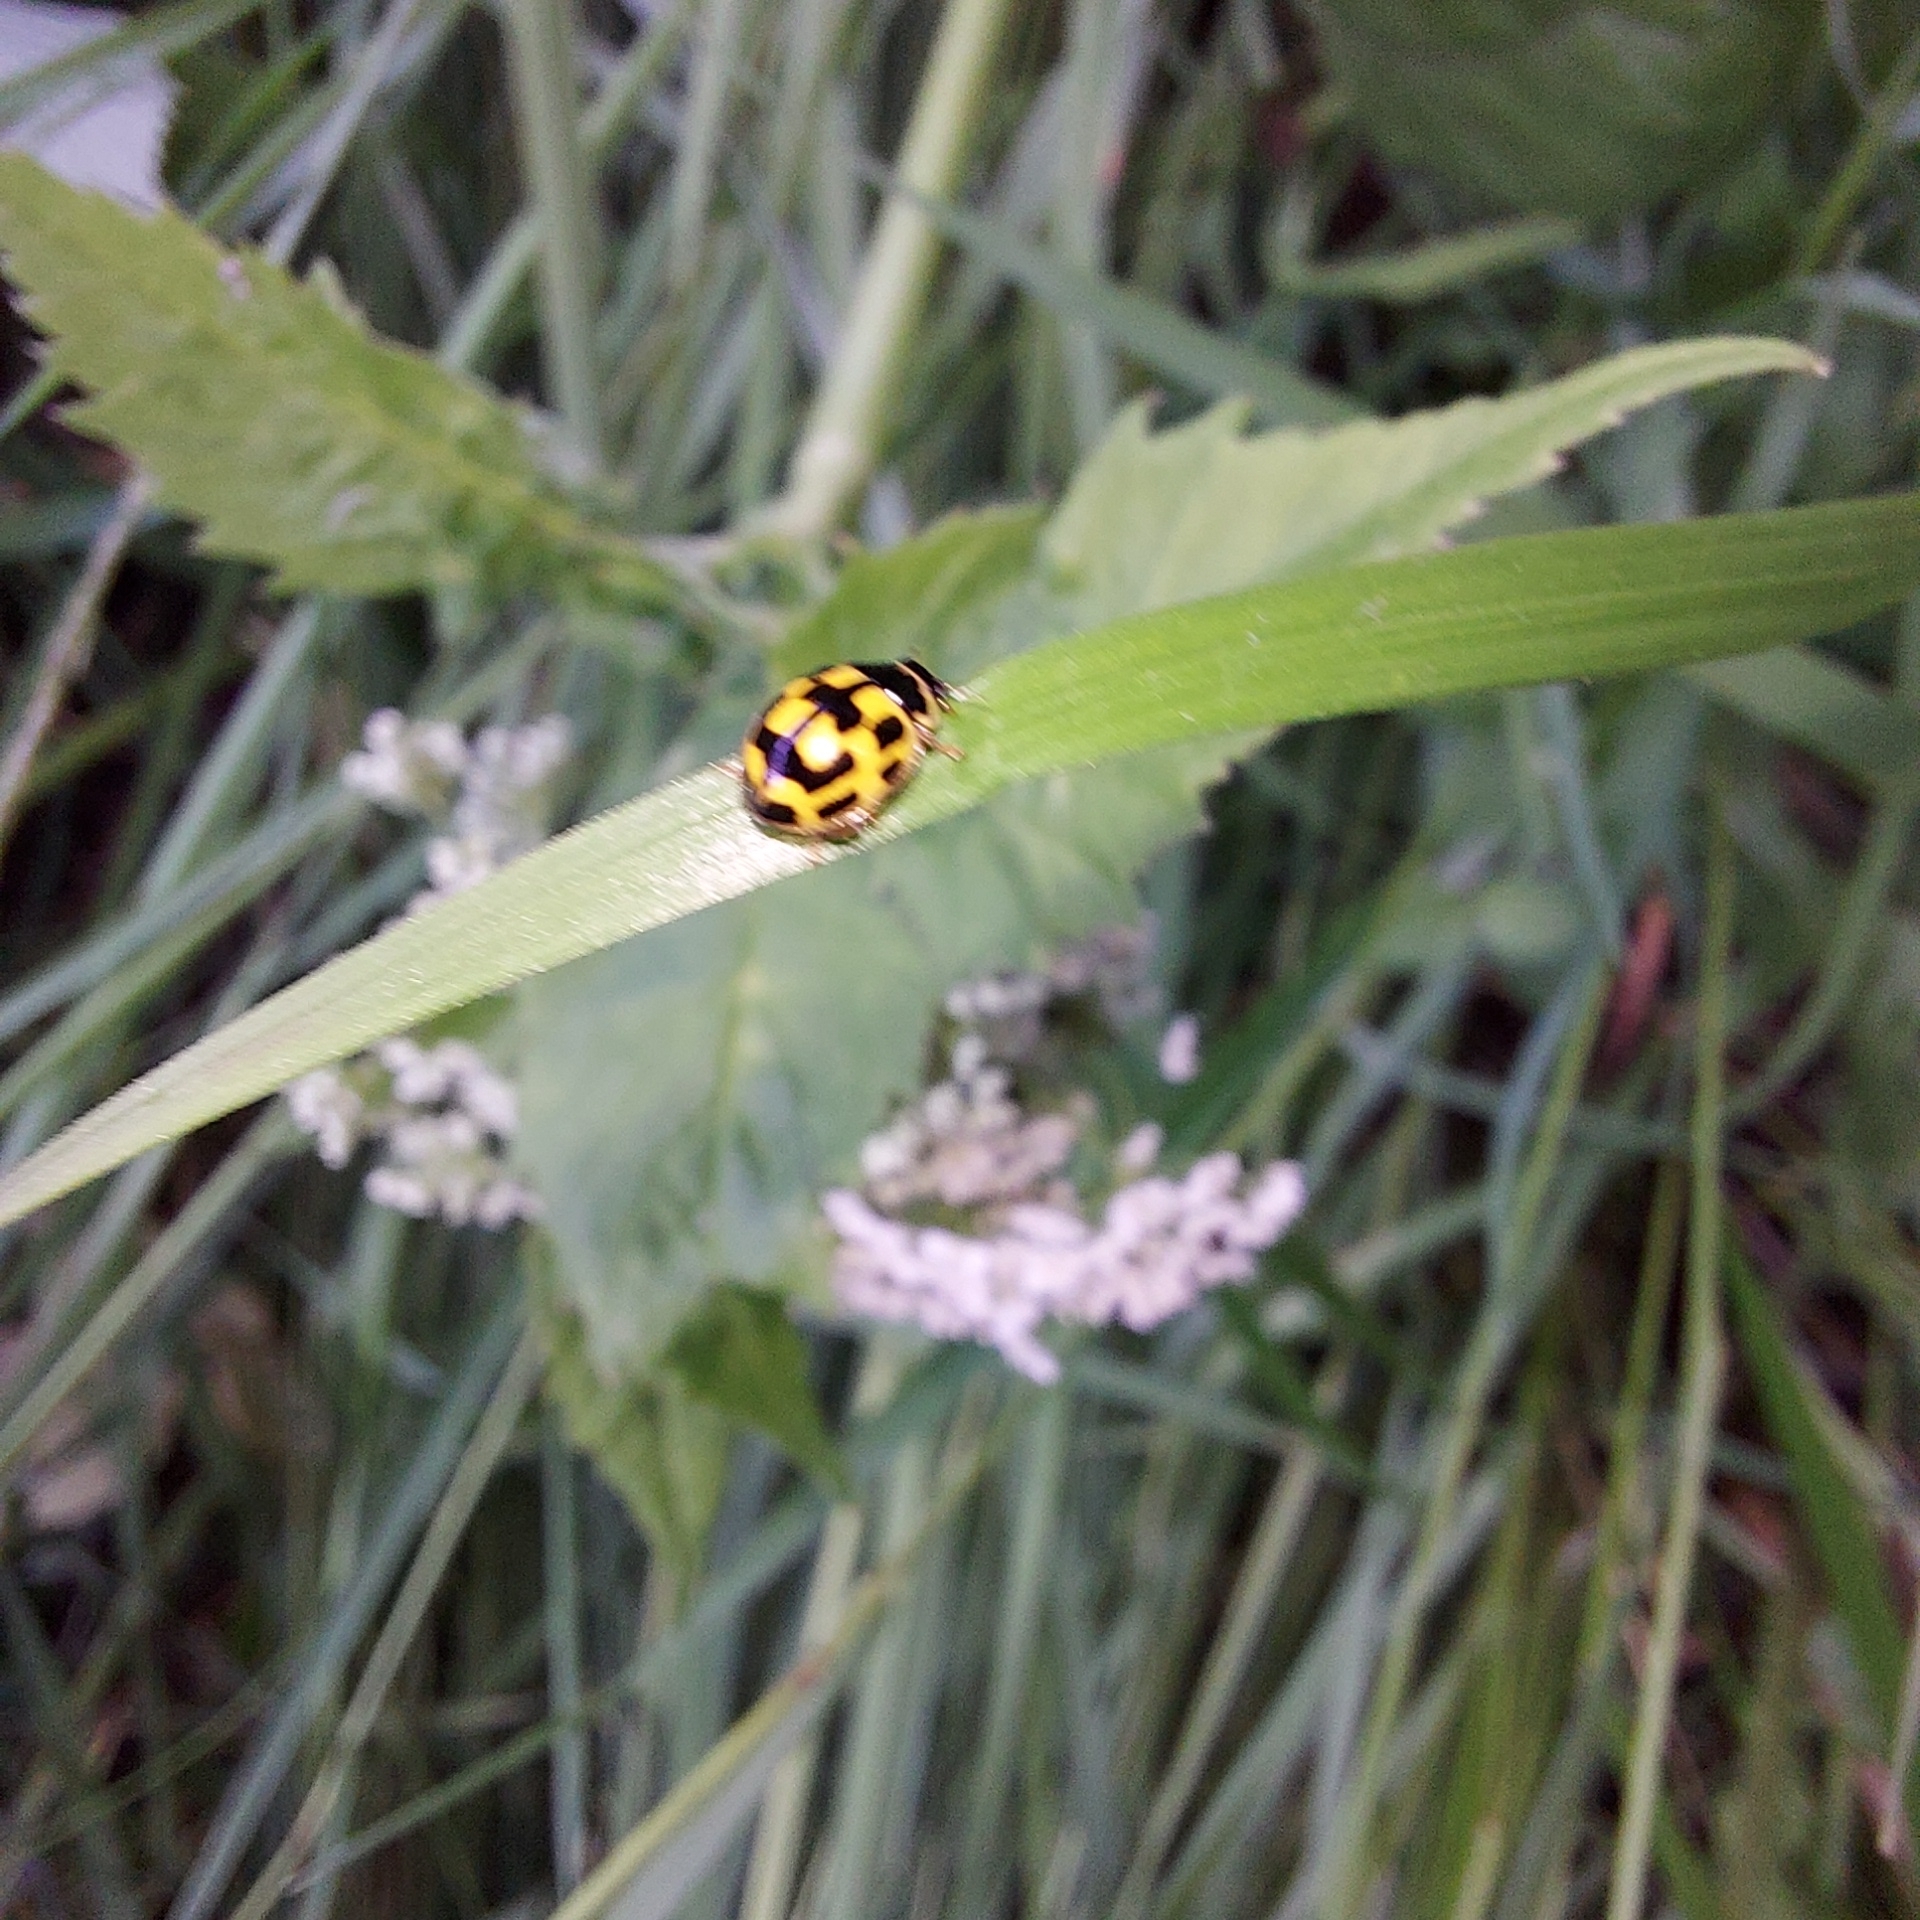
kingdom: Animalia
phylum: Arthropoda
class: Insecta
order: Coleoptera
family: Coccinellidae
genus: Propylaea
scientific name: Propylaea quatuordecimpunctata
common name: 14-spotted ladybird beetle
